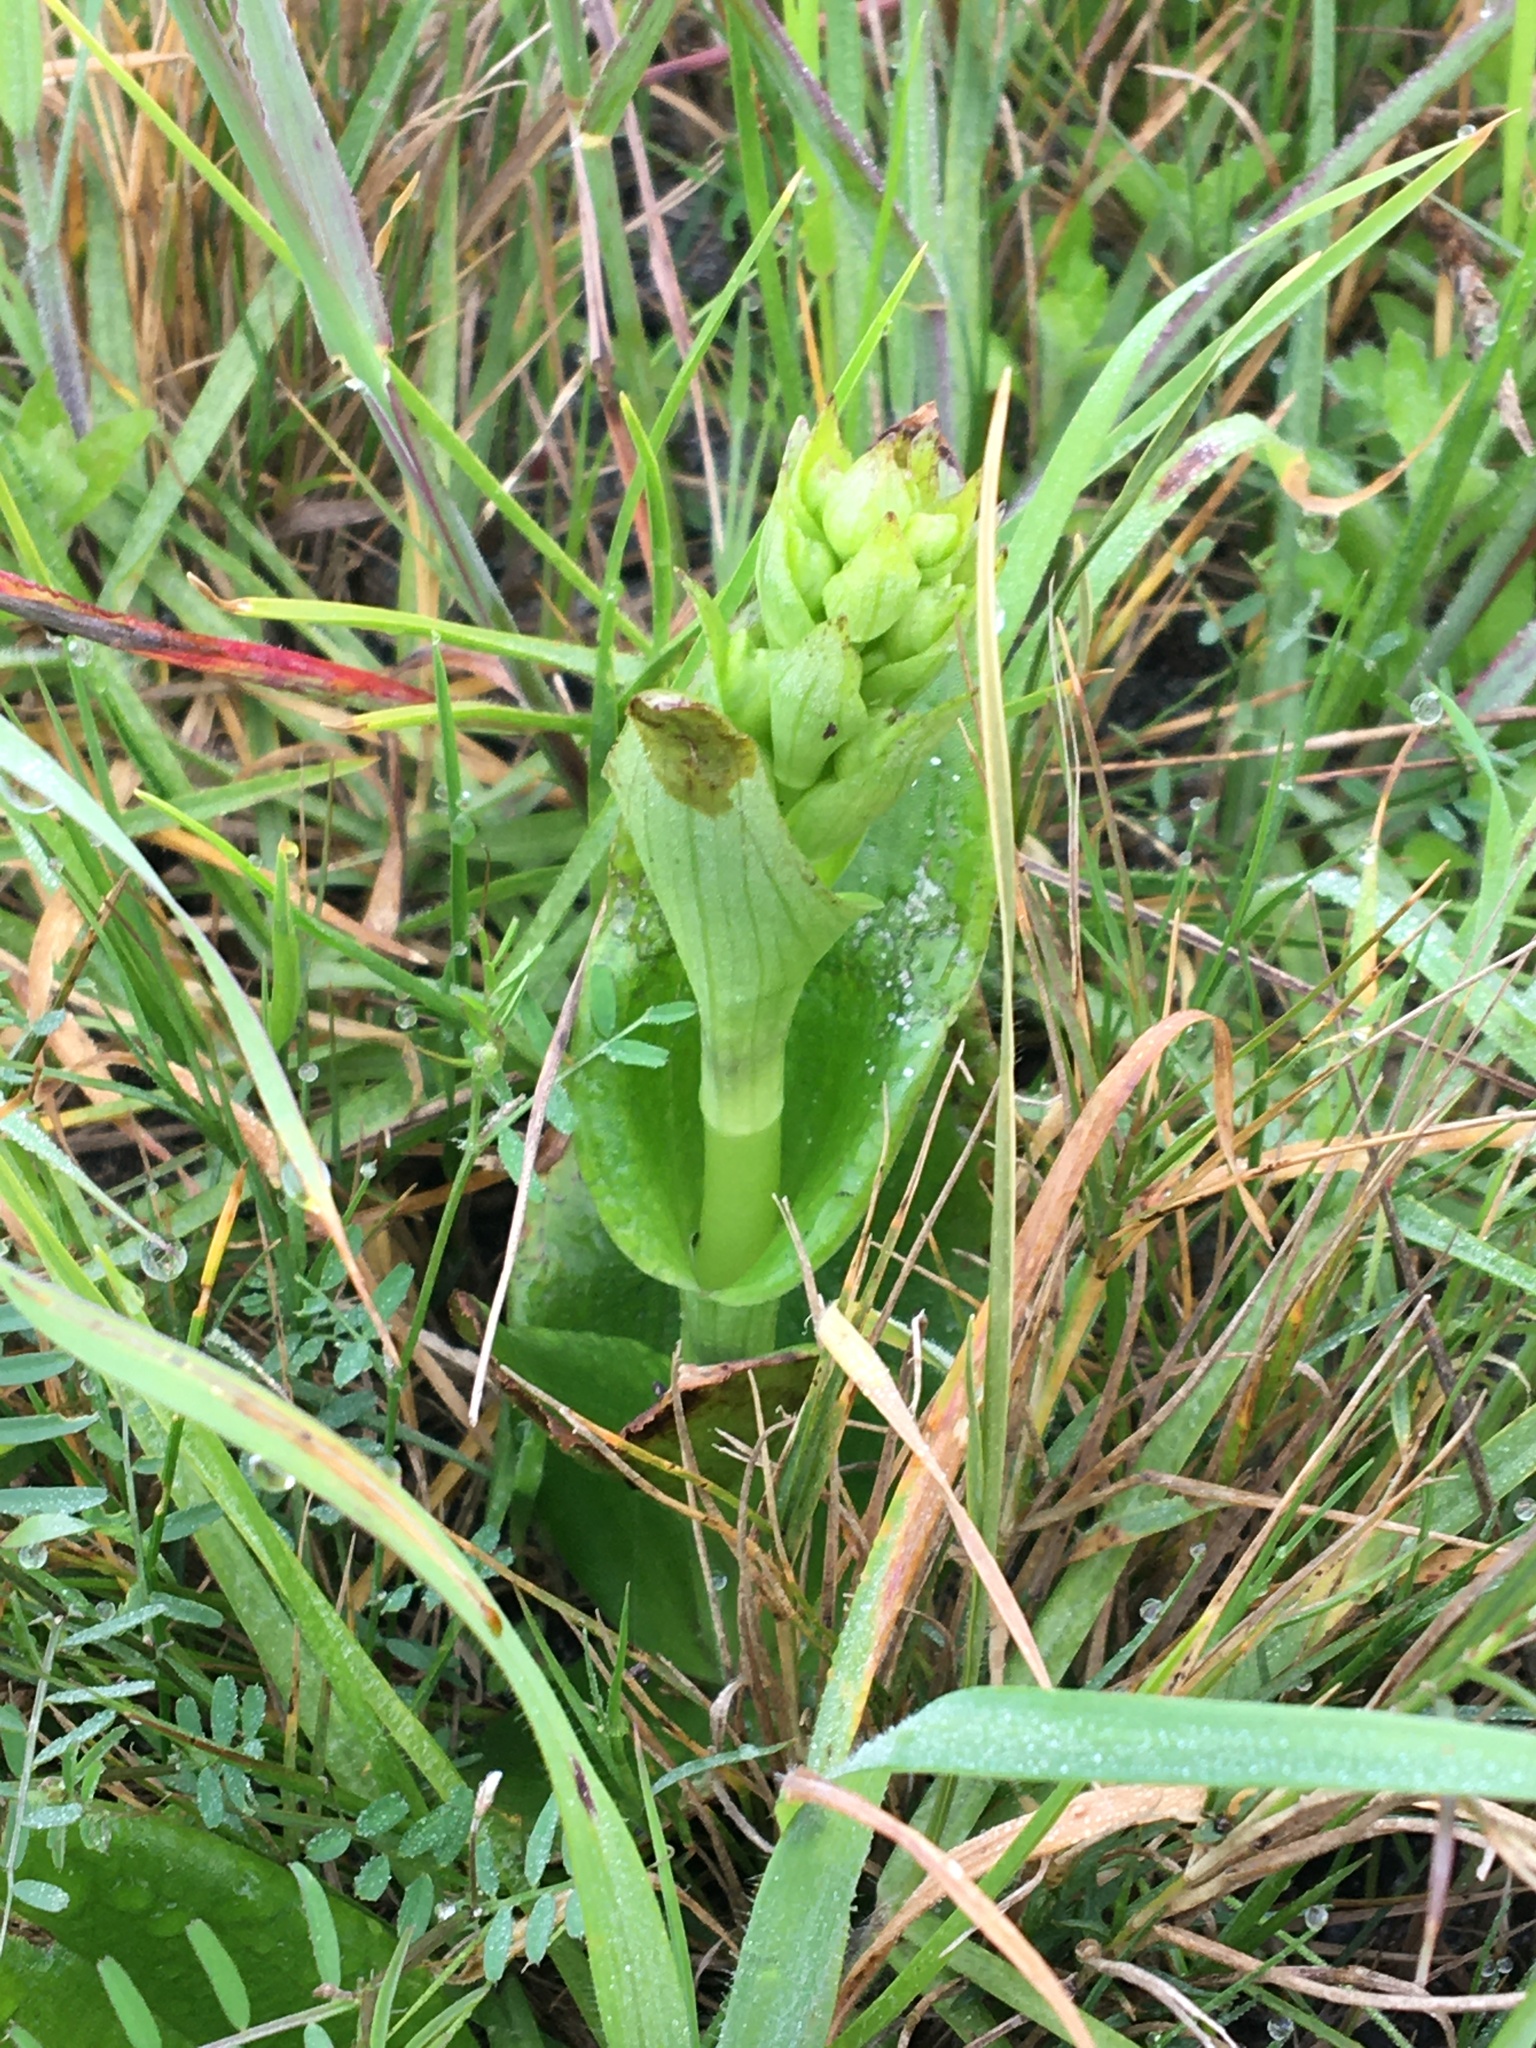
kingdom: Plantae
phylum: Tracheophyta
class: Liliopsida
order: Asparagales
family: Orchidaceae
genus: Satyrium
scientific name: Satyrium odorum
